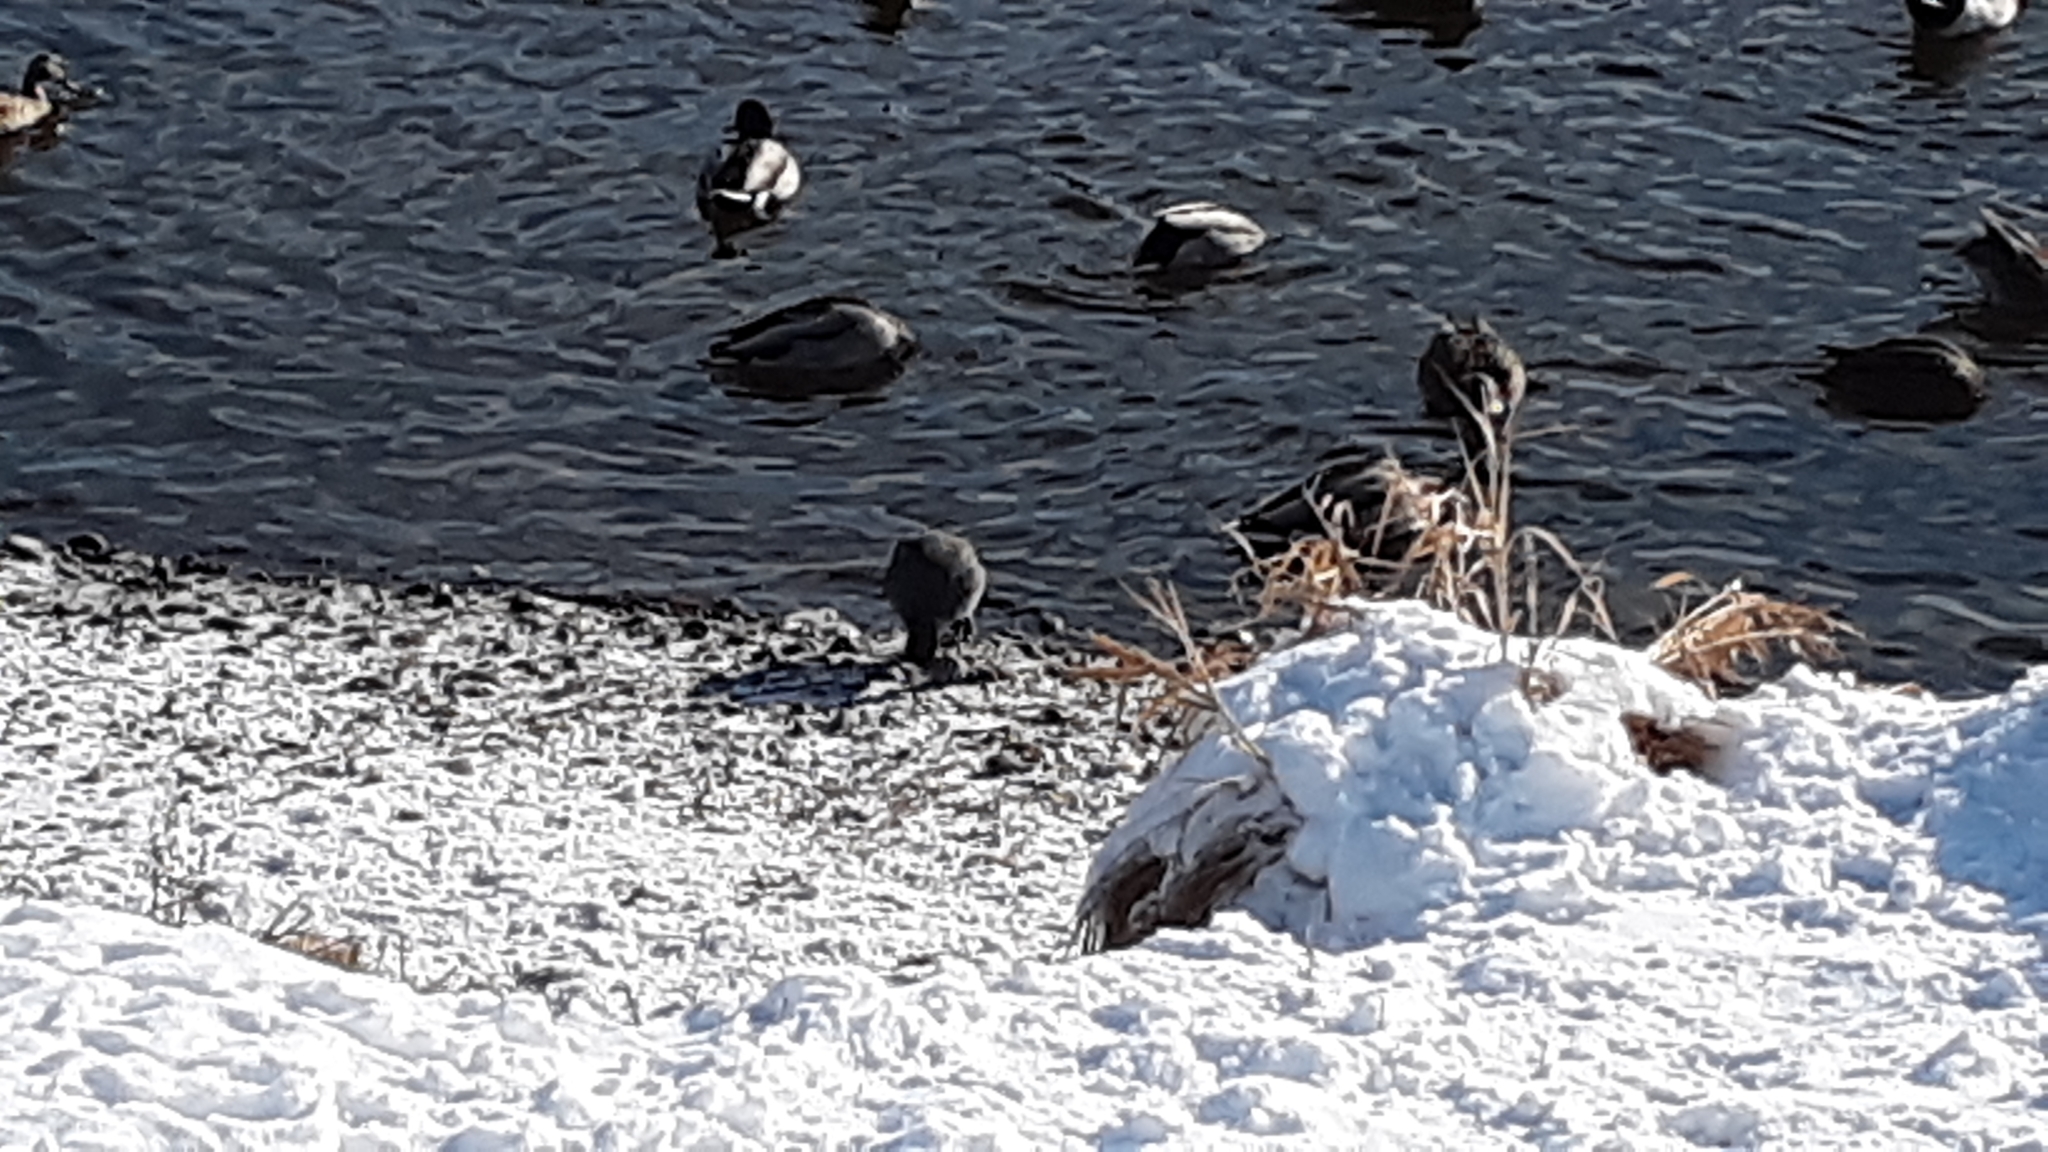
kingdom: Animalia
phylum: Chordata
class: Aves
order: Gruiformes
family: Rallidae
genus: Fulica
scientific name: Fulica americana
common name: American coot
